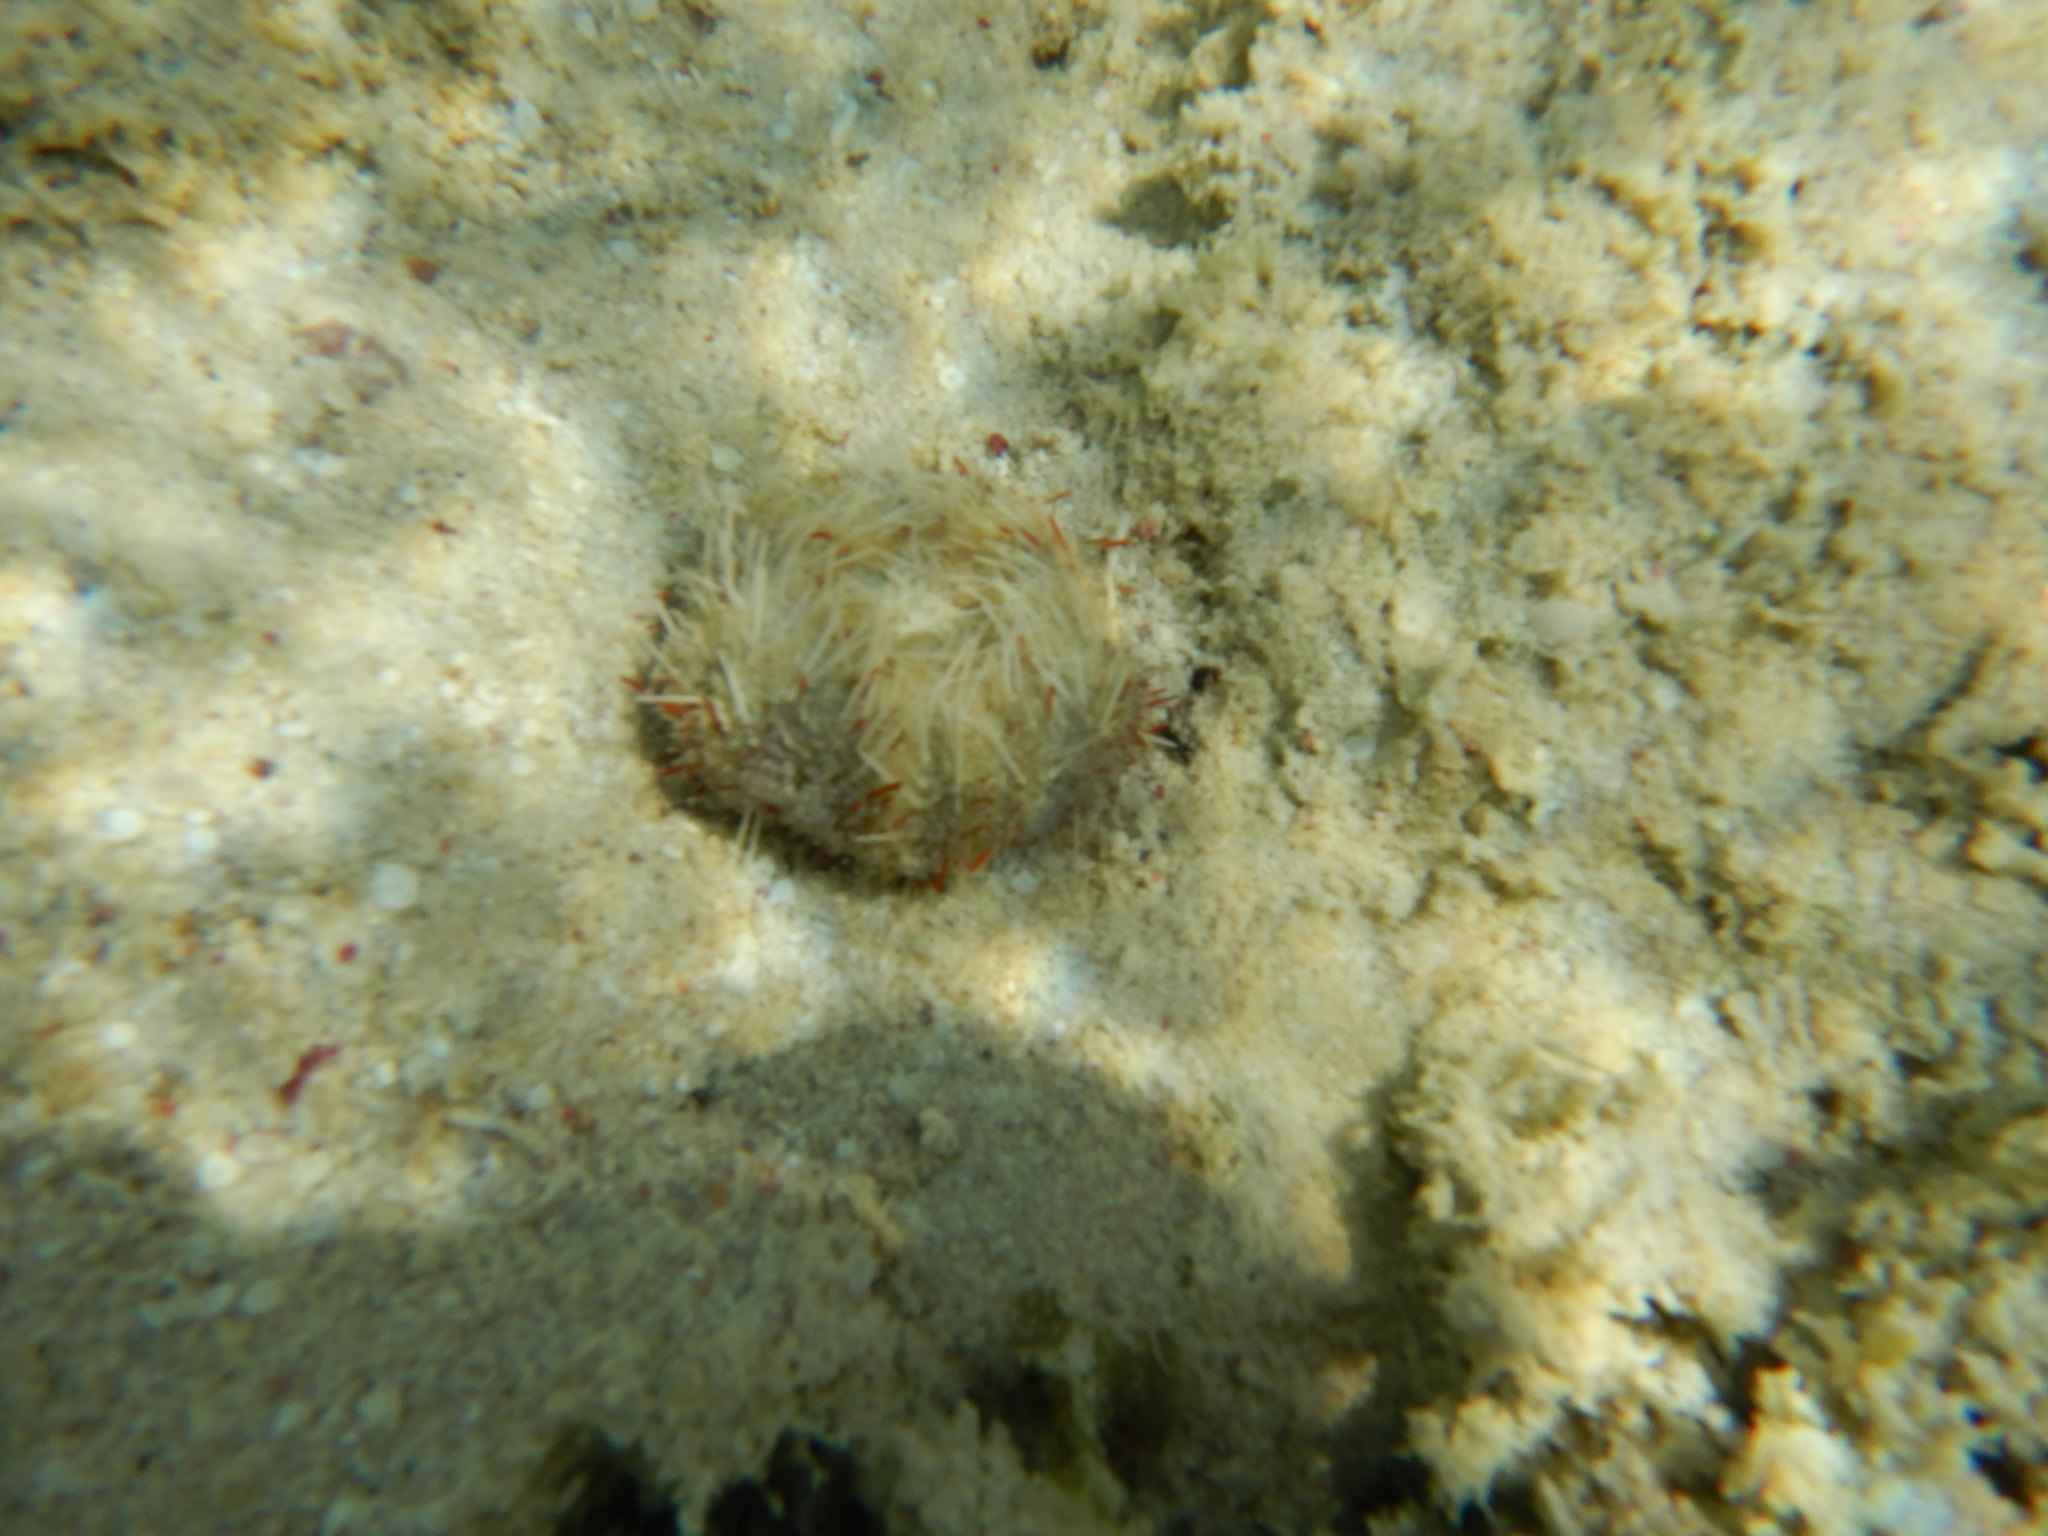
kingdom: Animalia
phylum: Echinodermata
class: Echinoidea
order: Camarodonta
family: Toxopneustidae
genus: Tripneustes
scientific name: Tripneustes gratilla
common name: Bischofsmützenseeigel
